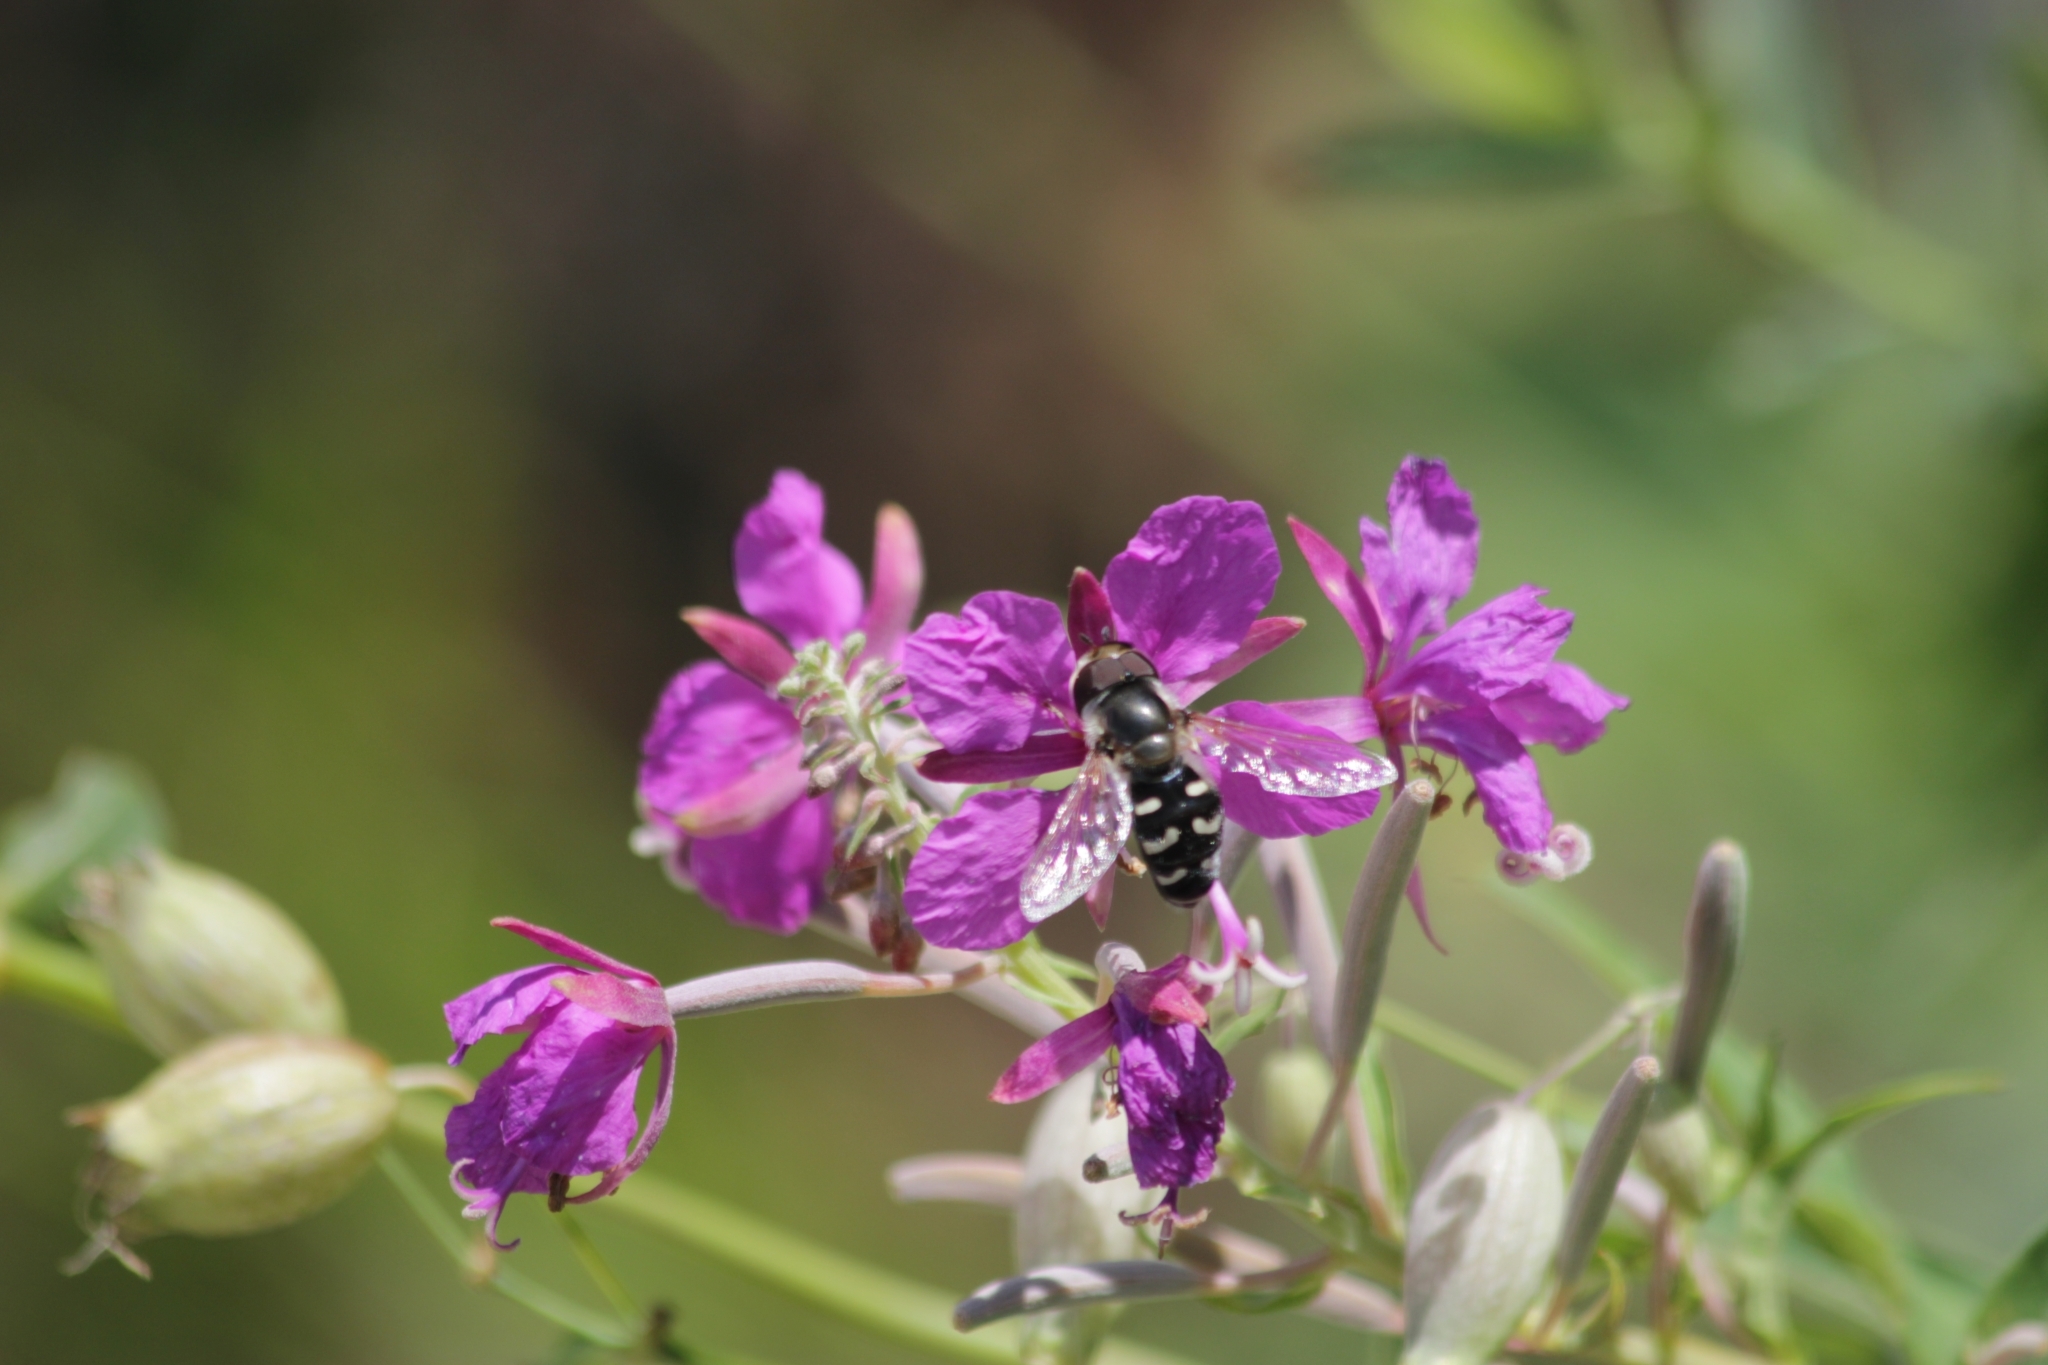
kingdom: Animalia
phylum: Arthropoda
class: Insecta
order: Diptera
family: Syrphidae
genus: Scaeva
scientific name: Scaeva pyrastri
